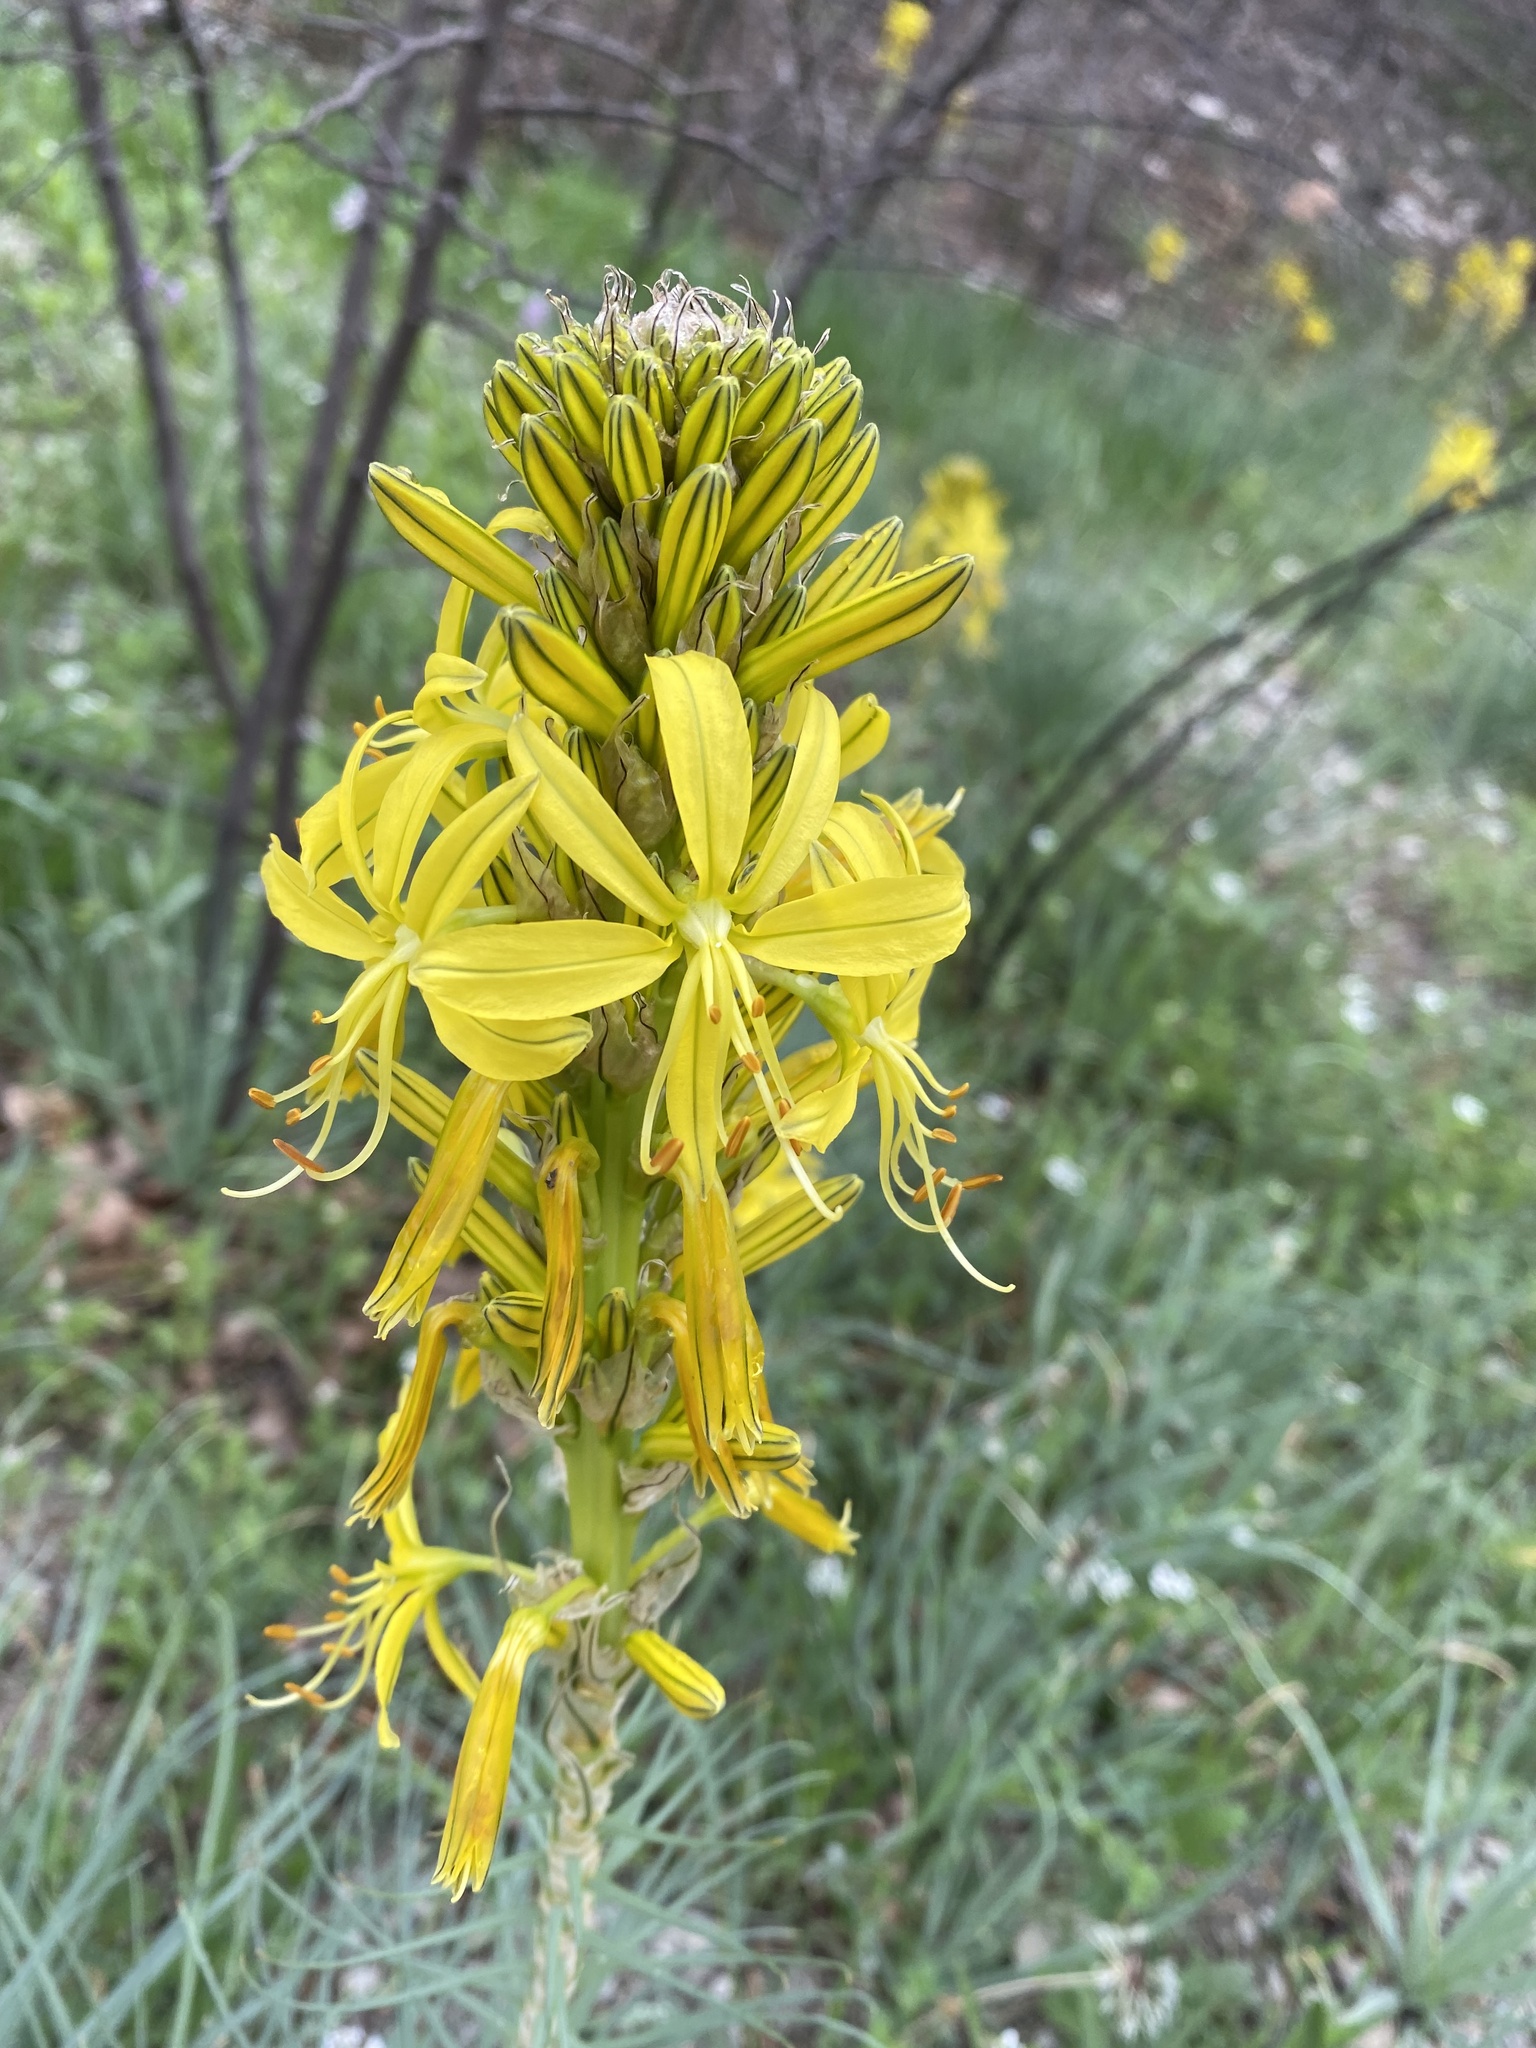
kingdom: Plantae
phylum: Tracheophyta
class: Liliopsida
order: Asparagales
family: Asphodelaceae
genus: Asphodeline
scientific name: Asphodeline lutea
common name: Yellow asphodel
